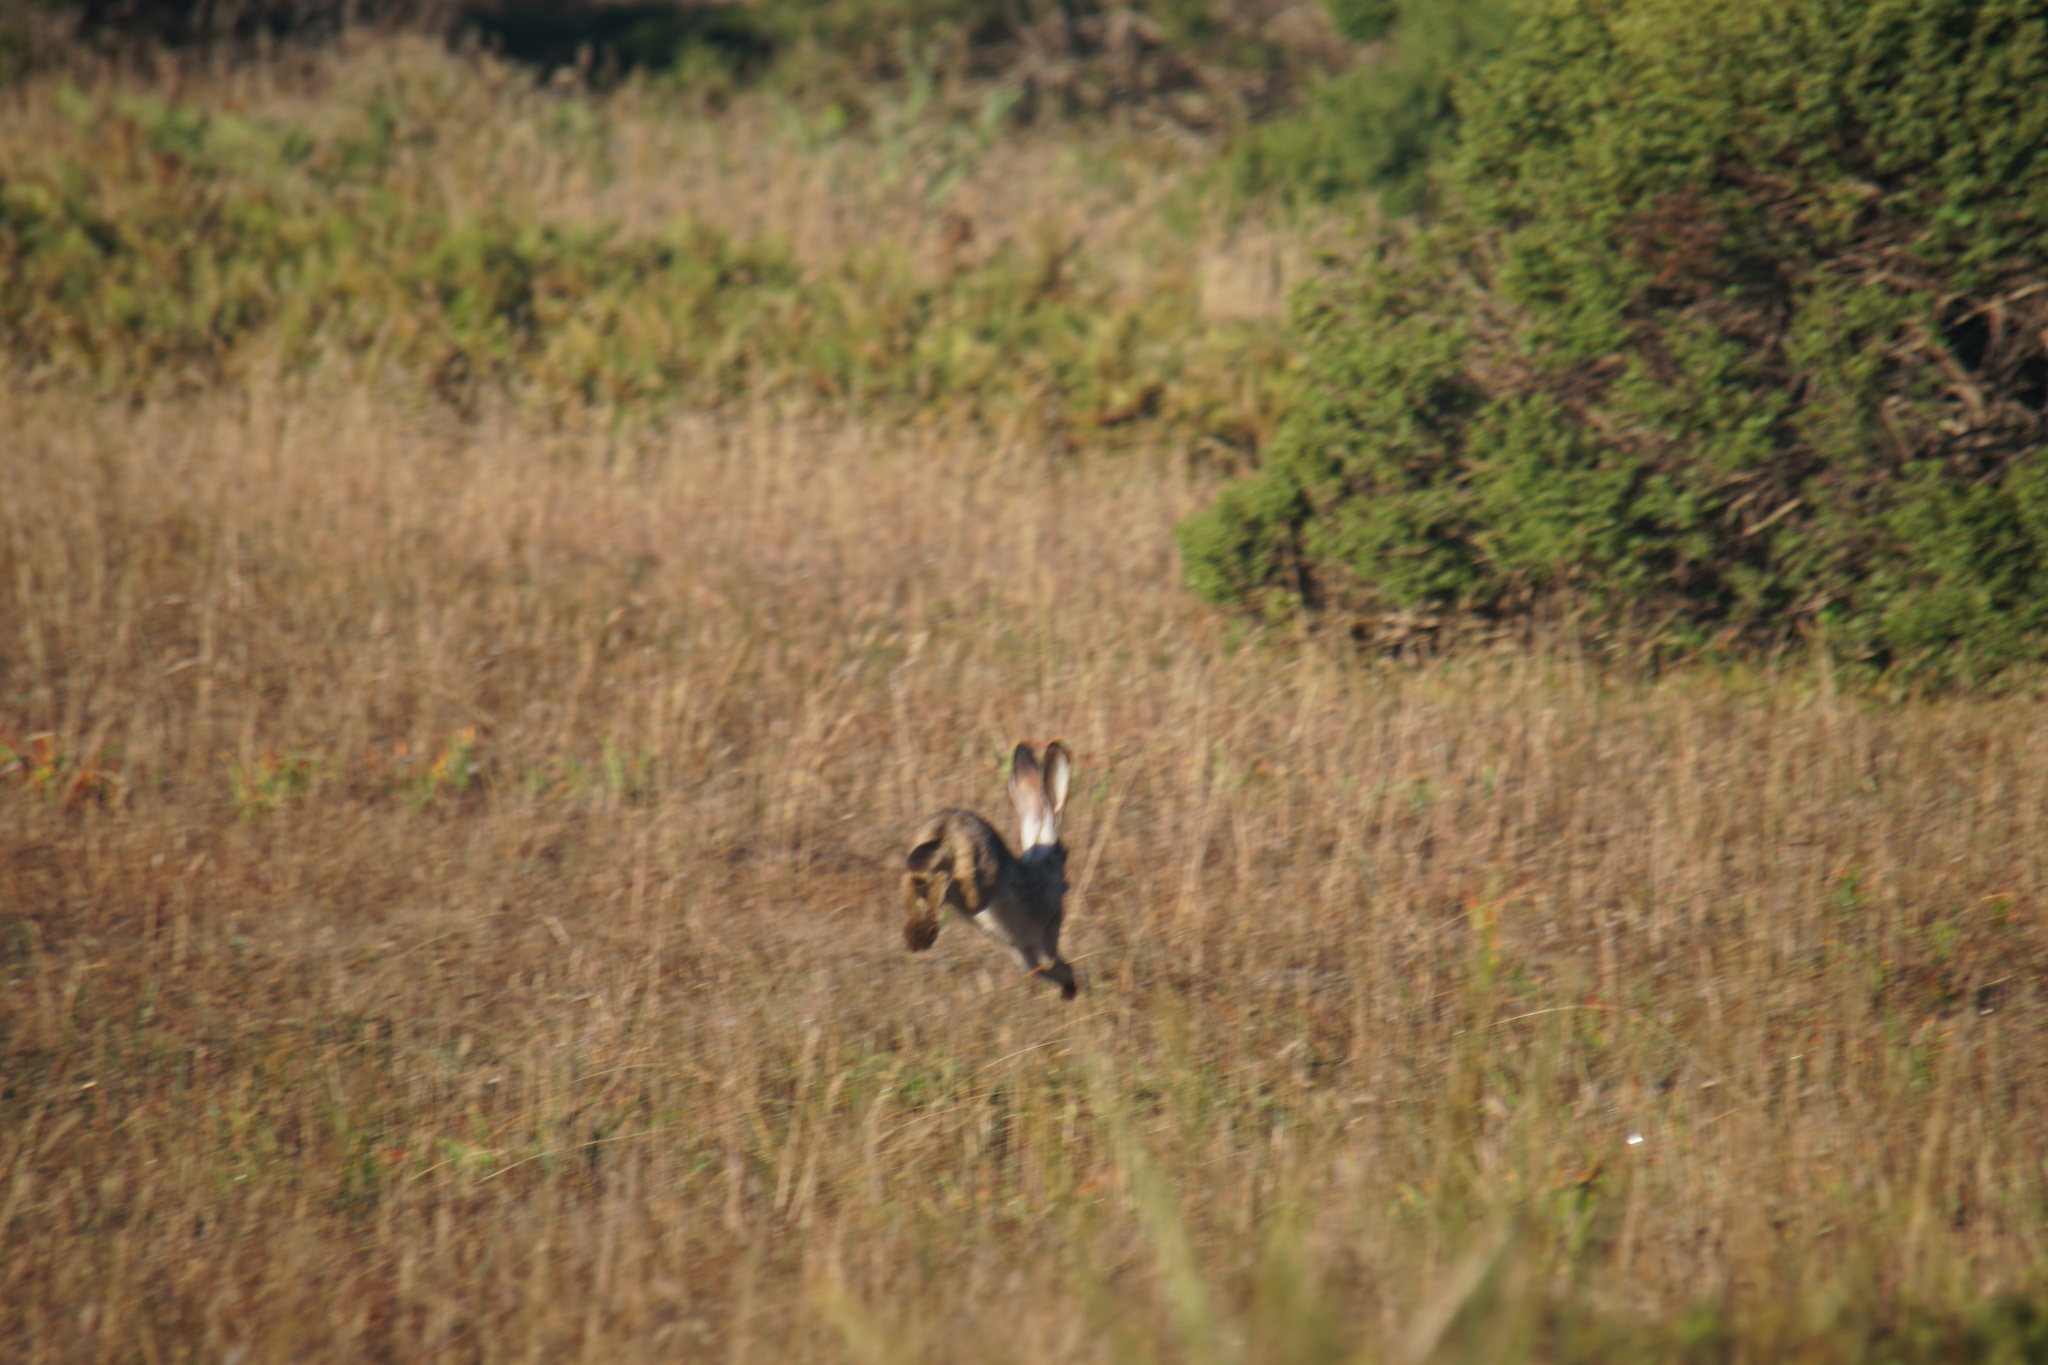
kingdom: Animalia
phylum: Chordata
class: Mammalia
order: Lagomorpha
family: Leporidae
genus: Lepus
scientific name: Lepus californicus
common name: Black-tailed jackrabbit
